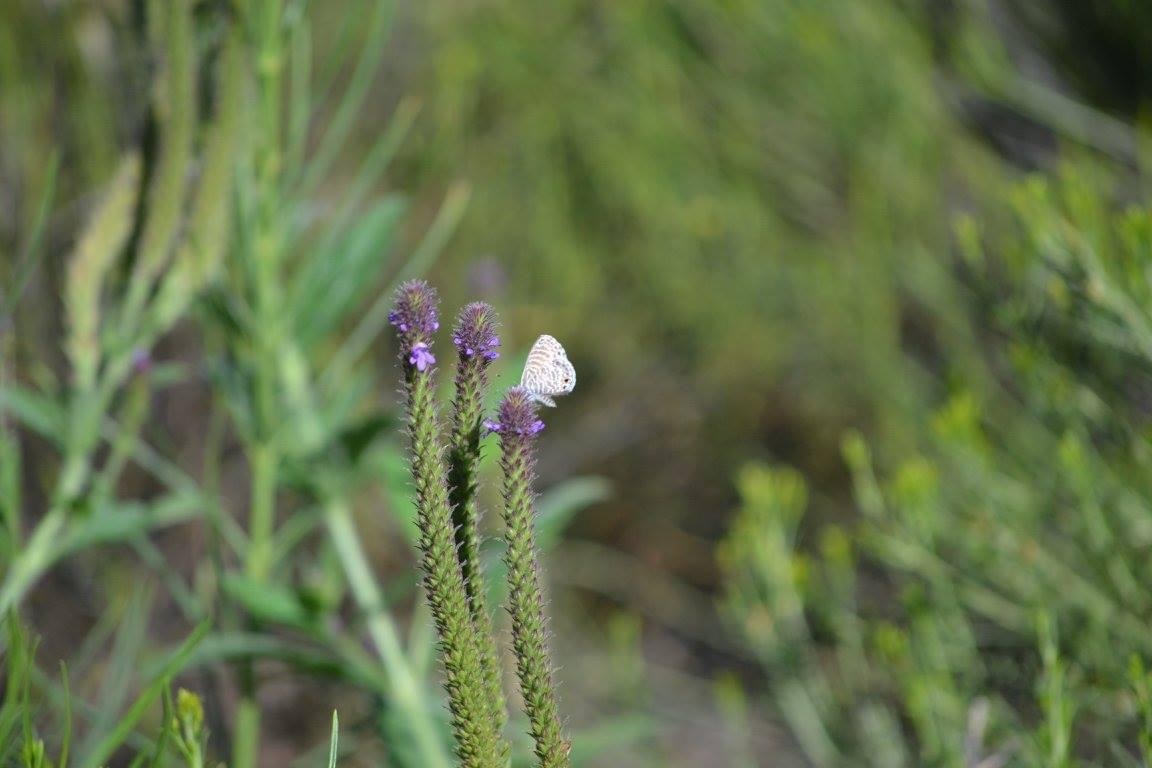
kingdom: Animalia
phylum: Arthropoda
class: Insecta
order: Lepidoptera
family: Lycaenidae
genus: Leptotes
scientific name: Leptotes marina
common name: Marine blue
